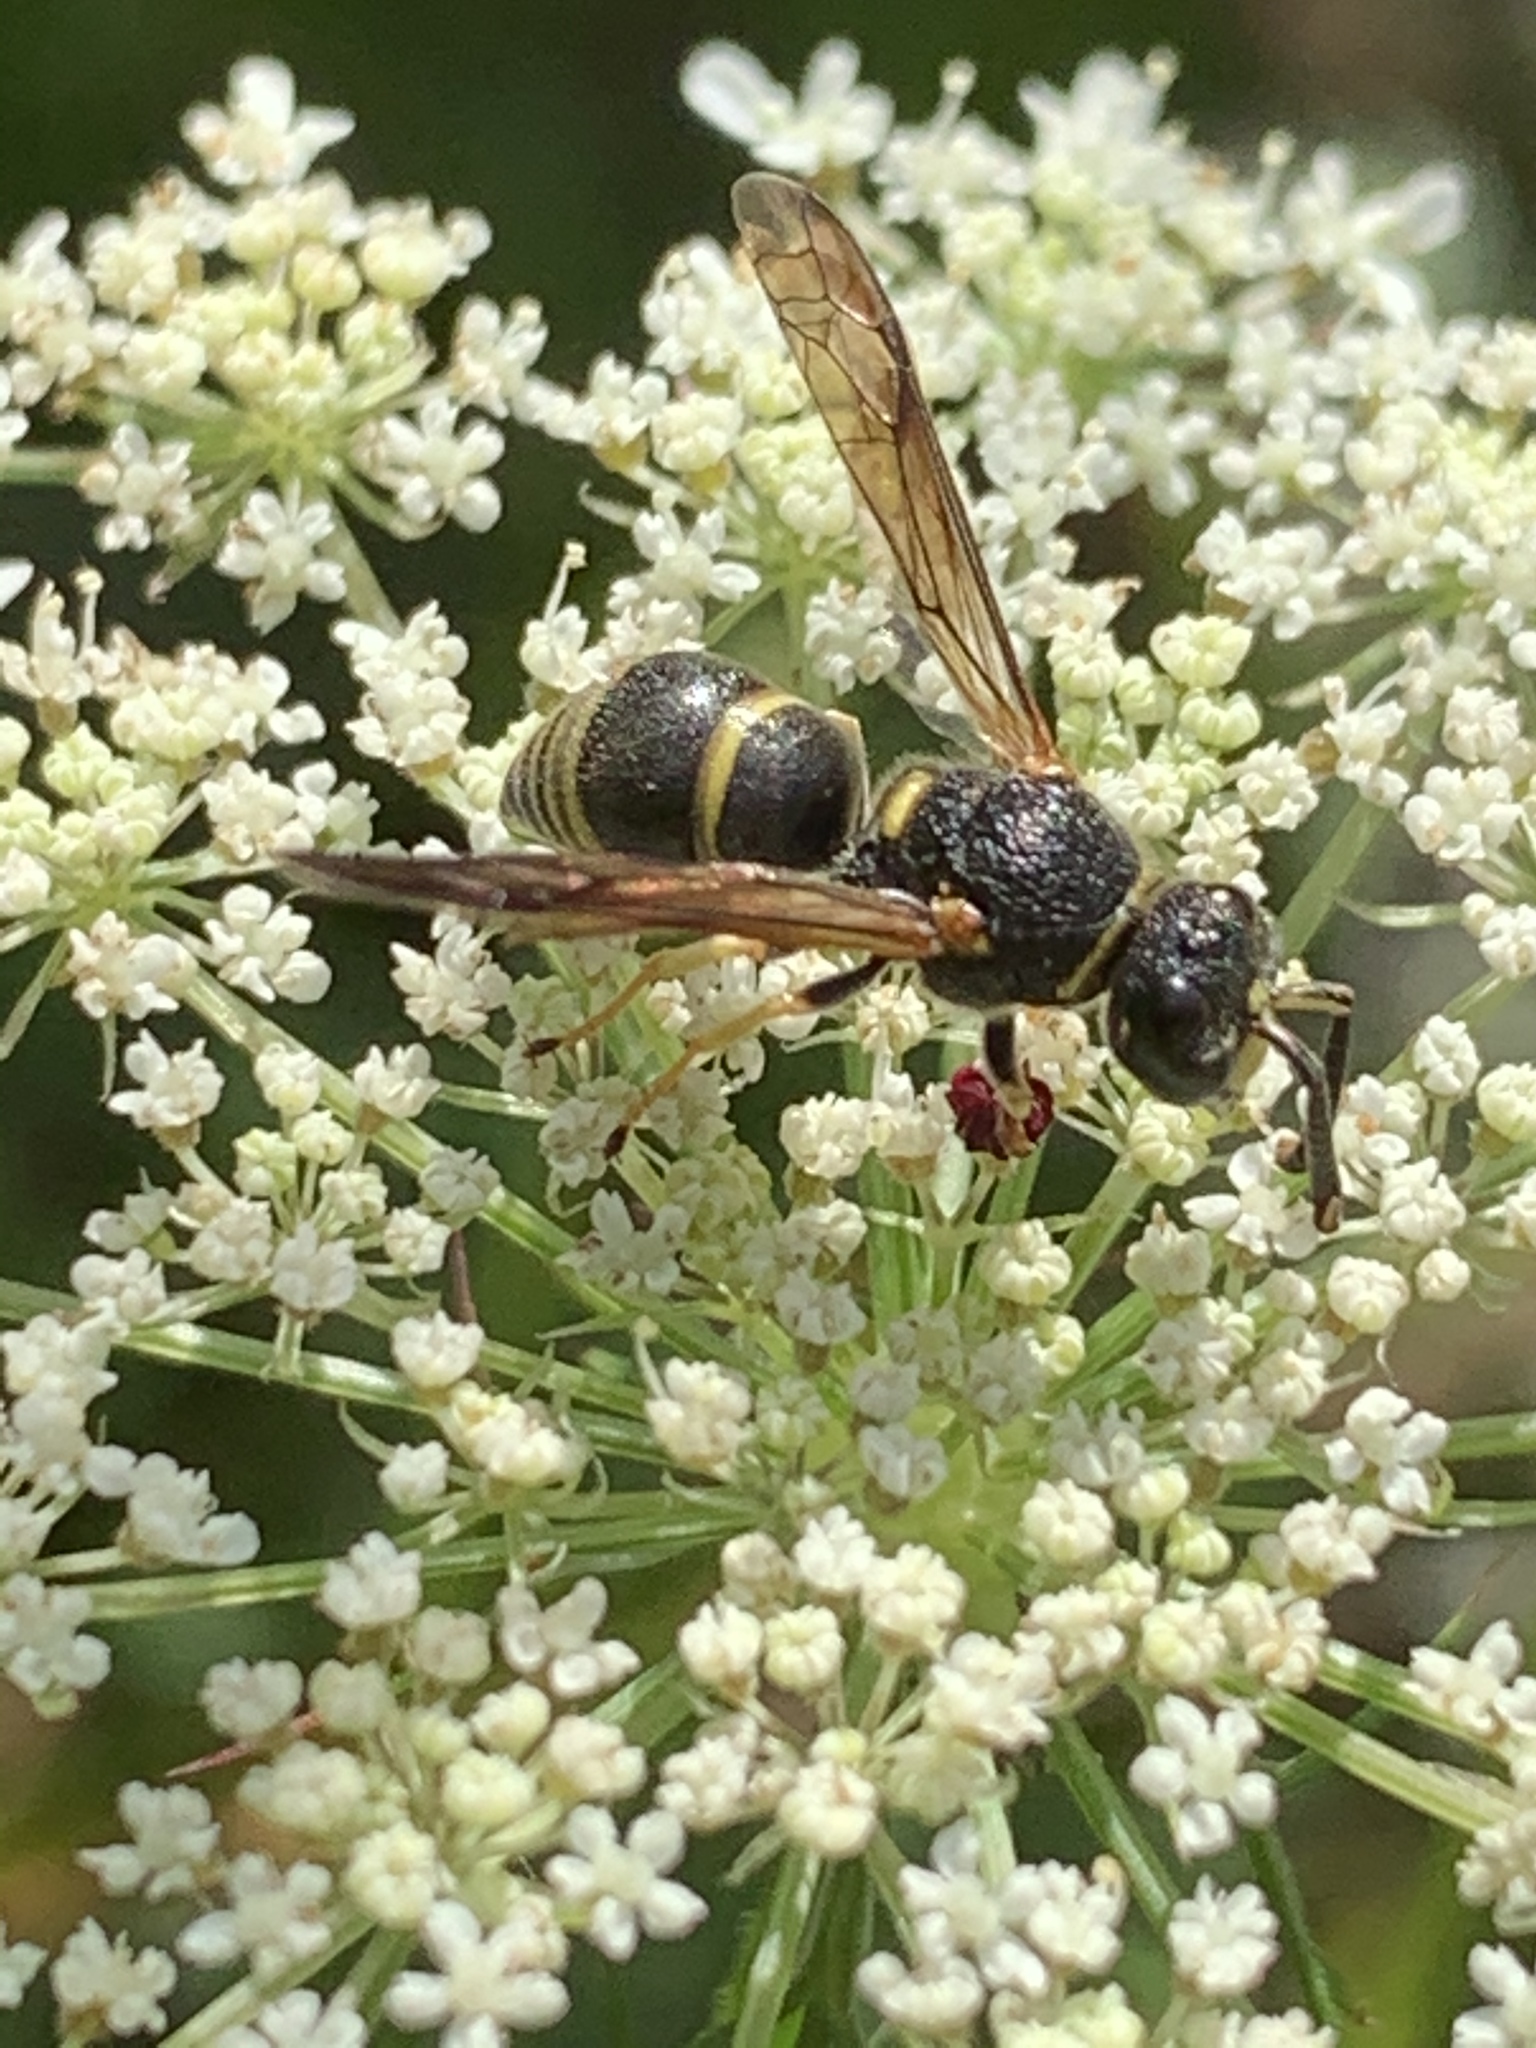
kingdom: Animalia
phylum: Arthropoda
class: Insecta
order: Hymenoptera
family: Eumenidae
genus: Euodynerus
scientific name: Euodynerus foraminatus
